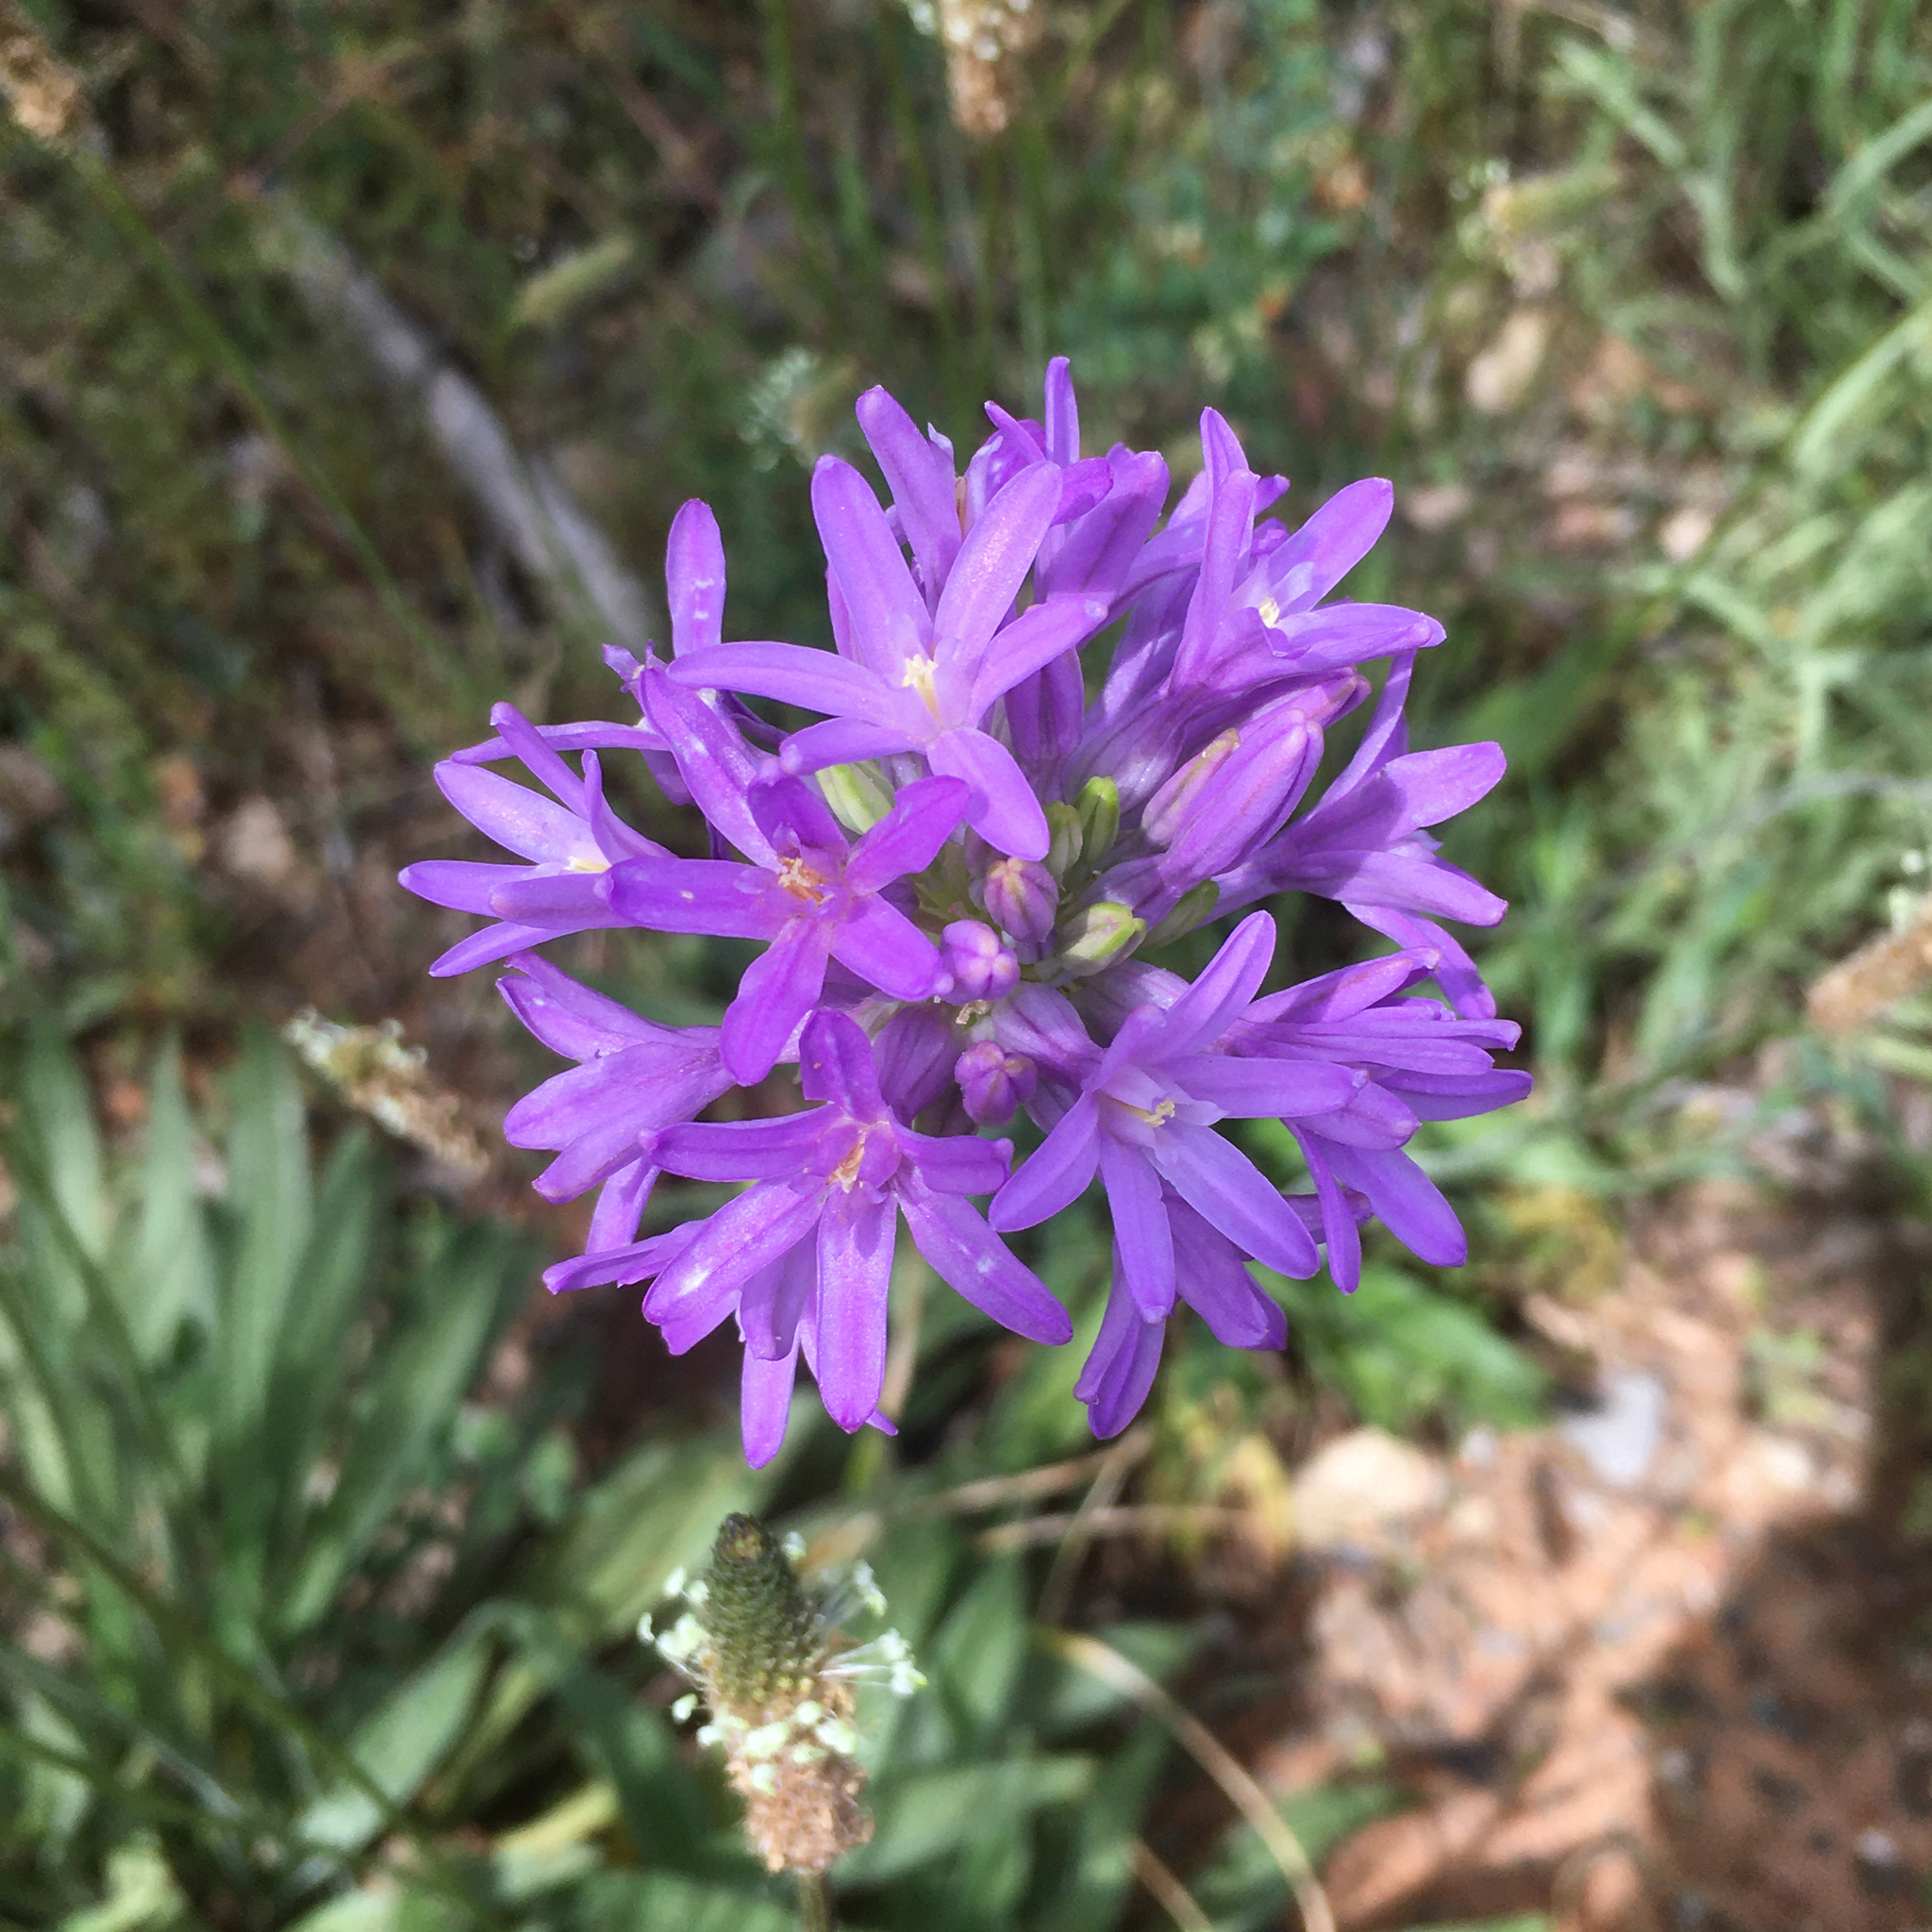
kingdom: Plantae
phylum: Tracheophyta
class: Liliopsida
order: Asparagales
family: Asparagaceae
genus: Dichelostemma
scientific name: Dichelostemma multiflorum
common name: Round-tooth ookow
